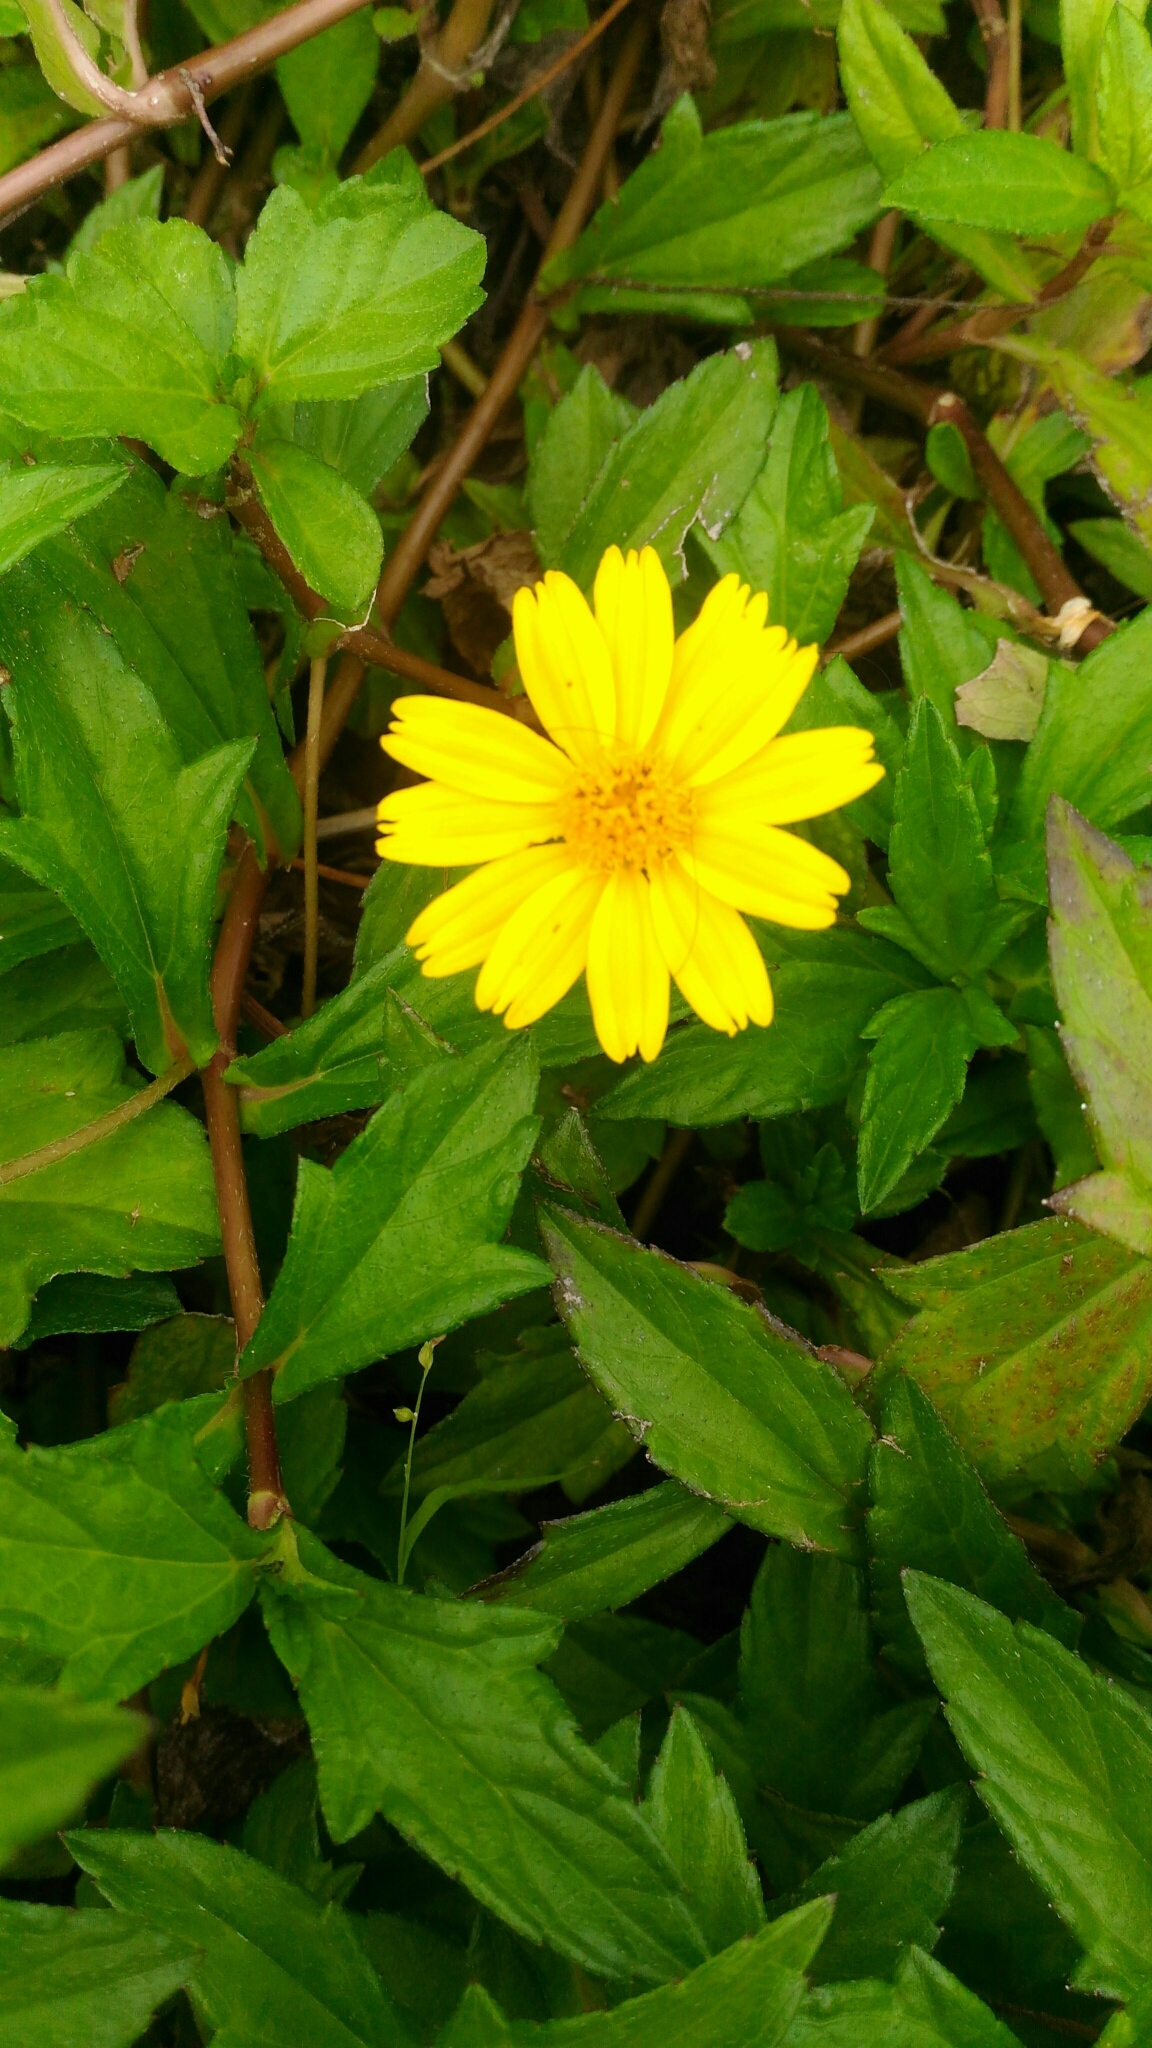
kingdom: Plantae
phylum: Tracheophyta
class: Magnoliopsida
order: Asterales
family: Asteraceae
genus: Sphagneticola
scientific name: Sphagneticola trilobata
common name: Bay biscayne creeping-oxeye
